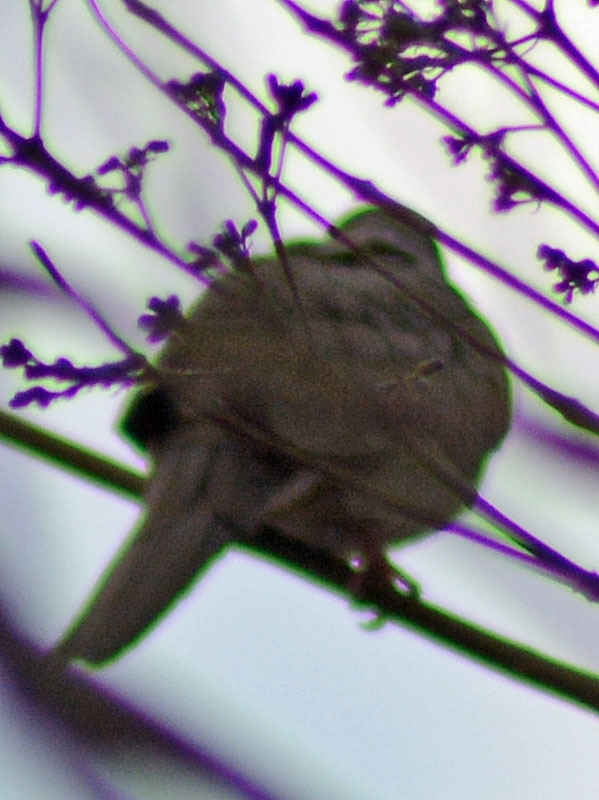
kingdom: Animalia
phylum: Chordata
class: Aves
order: Columbiformes
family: Columbidae
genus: Columbina
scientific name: Columbina inca
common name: Inca dove
